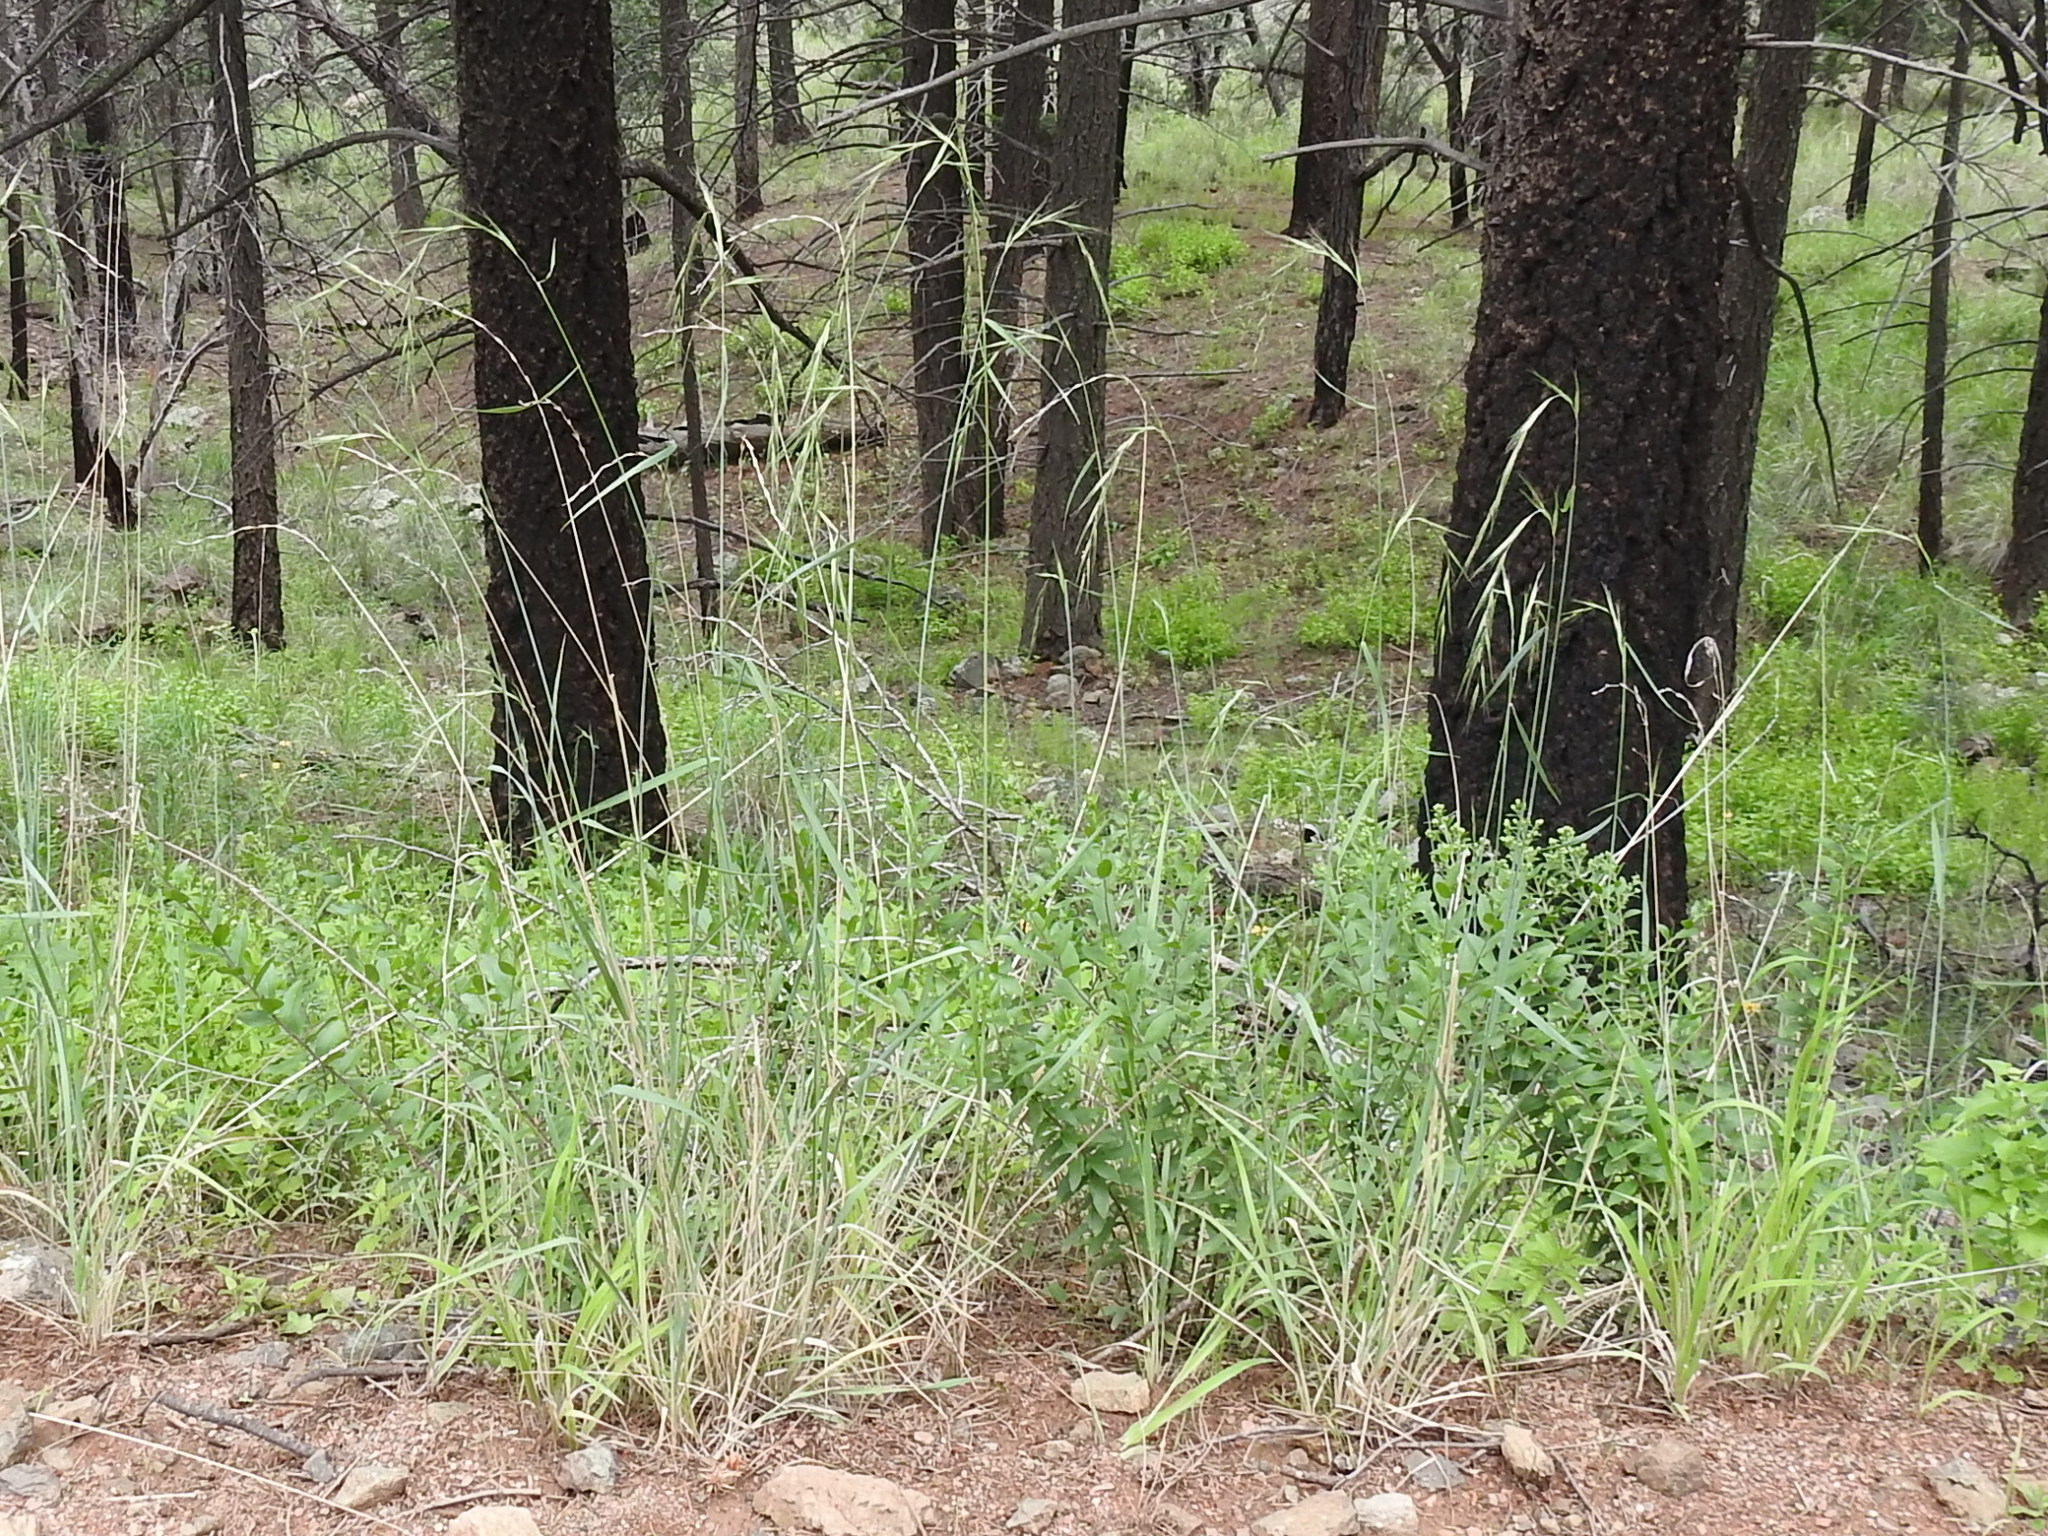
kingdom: Plantae
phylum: Tracheophyta
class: Liliopsida
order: Poales
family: Poaceae
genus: Elymus
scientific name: Elymus arizonicus
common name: Arizona wheatgrass
